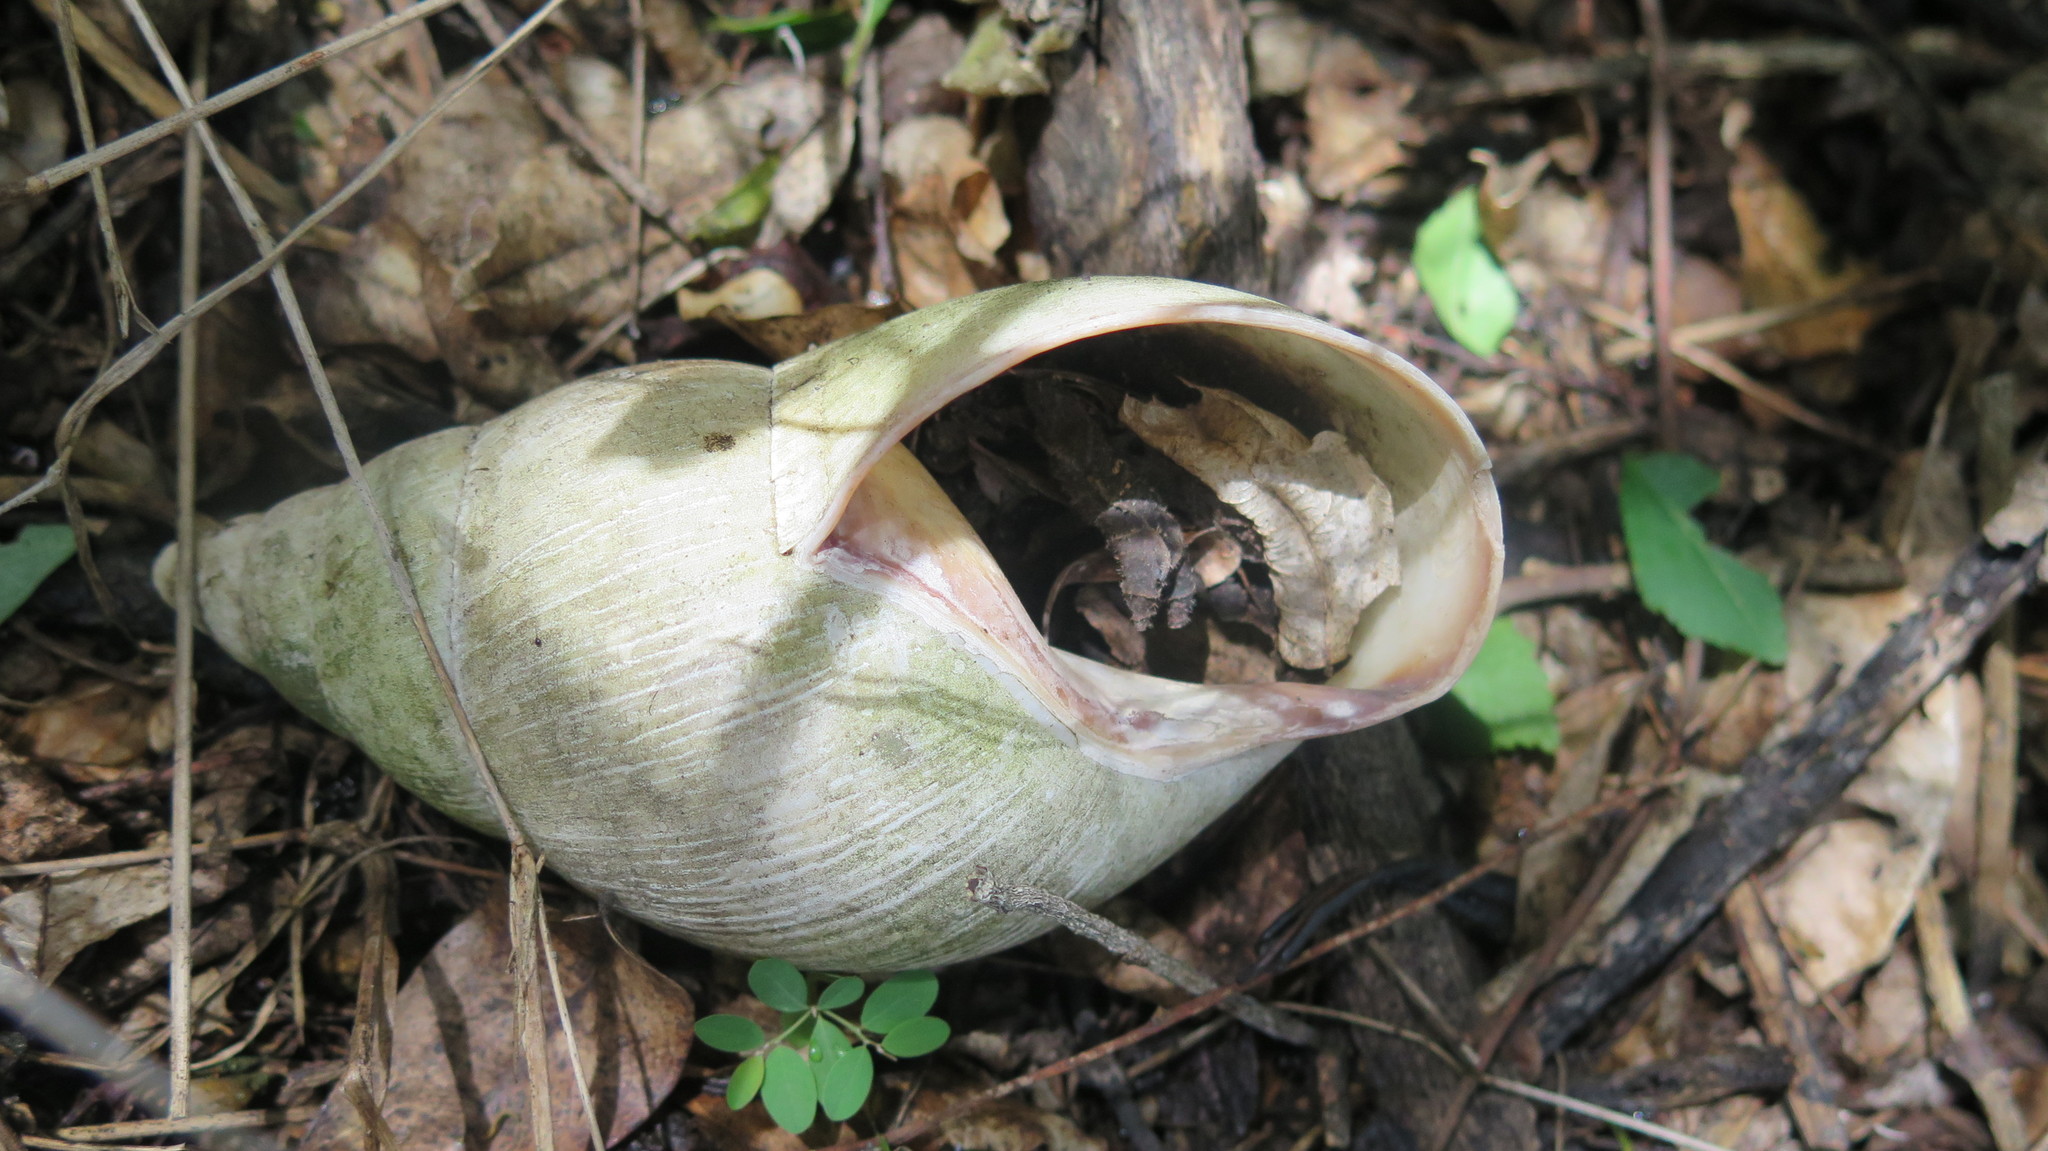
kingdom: Animalia
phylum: Mollusca
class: Gastropoda
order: Stylommatophora
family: Achatinidae
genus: Metachatina
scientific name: Metachatina kraussi
